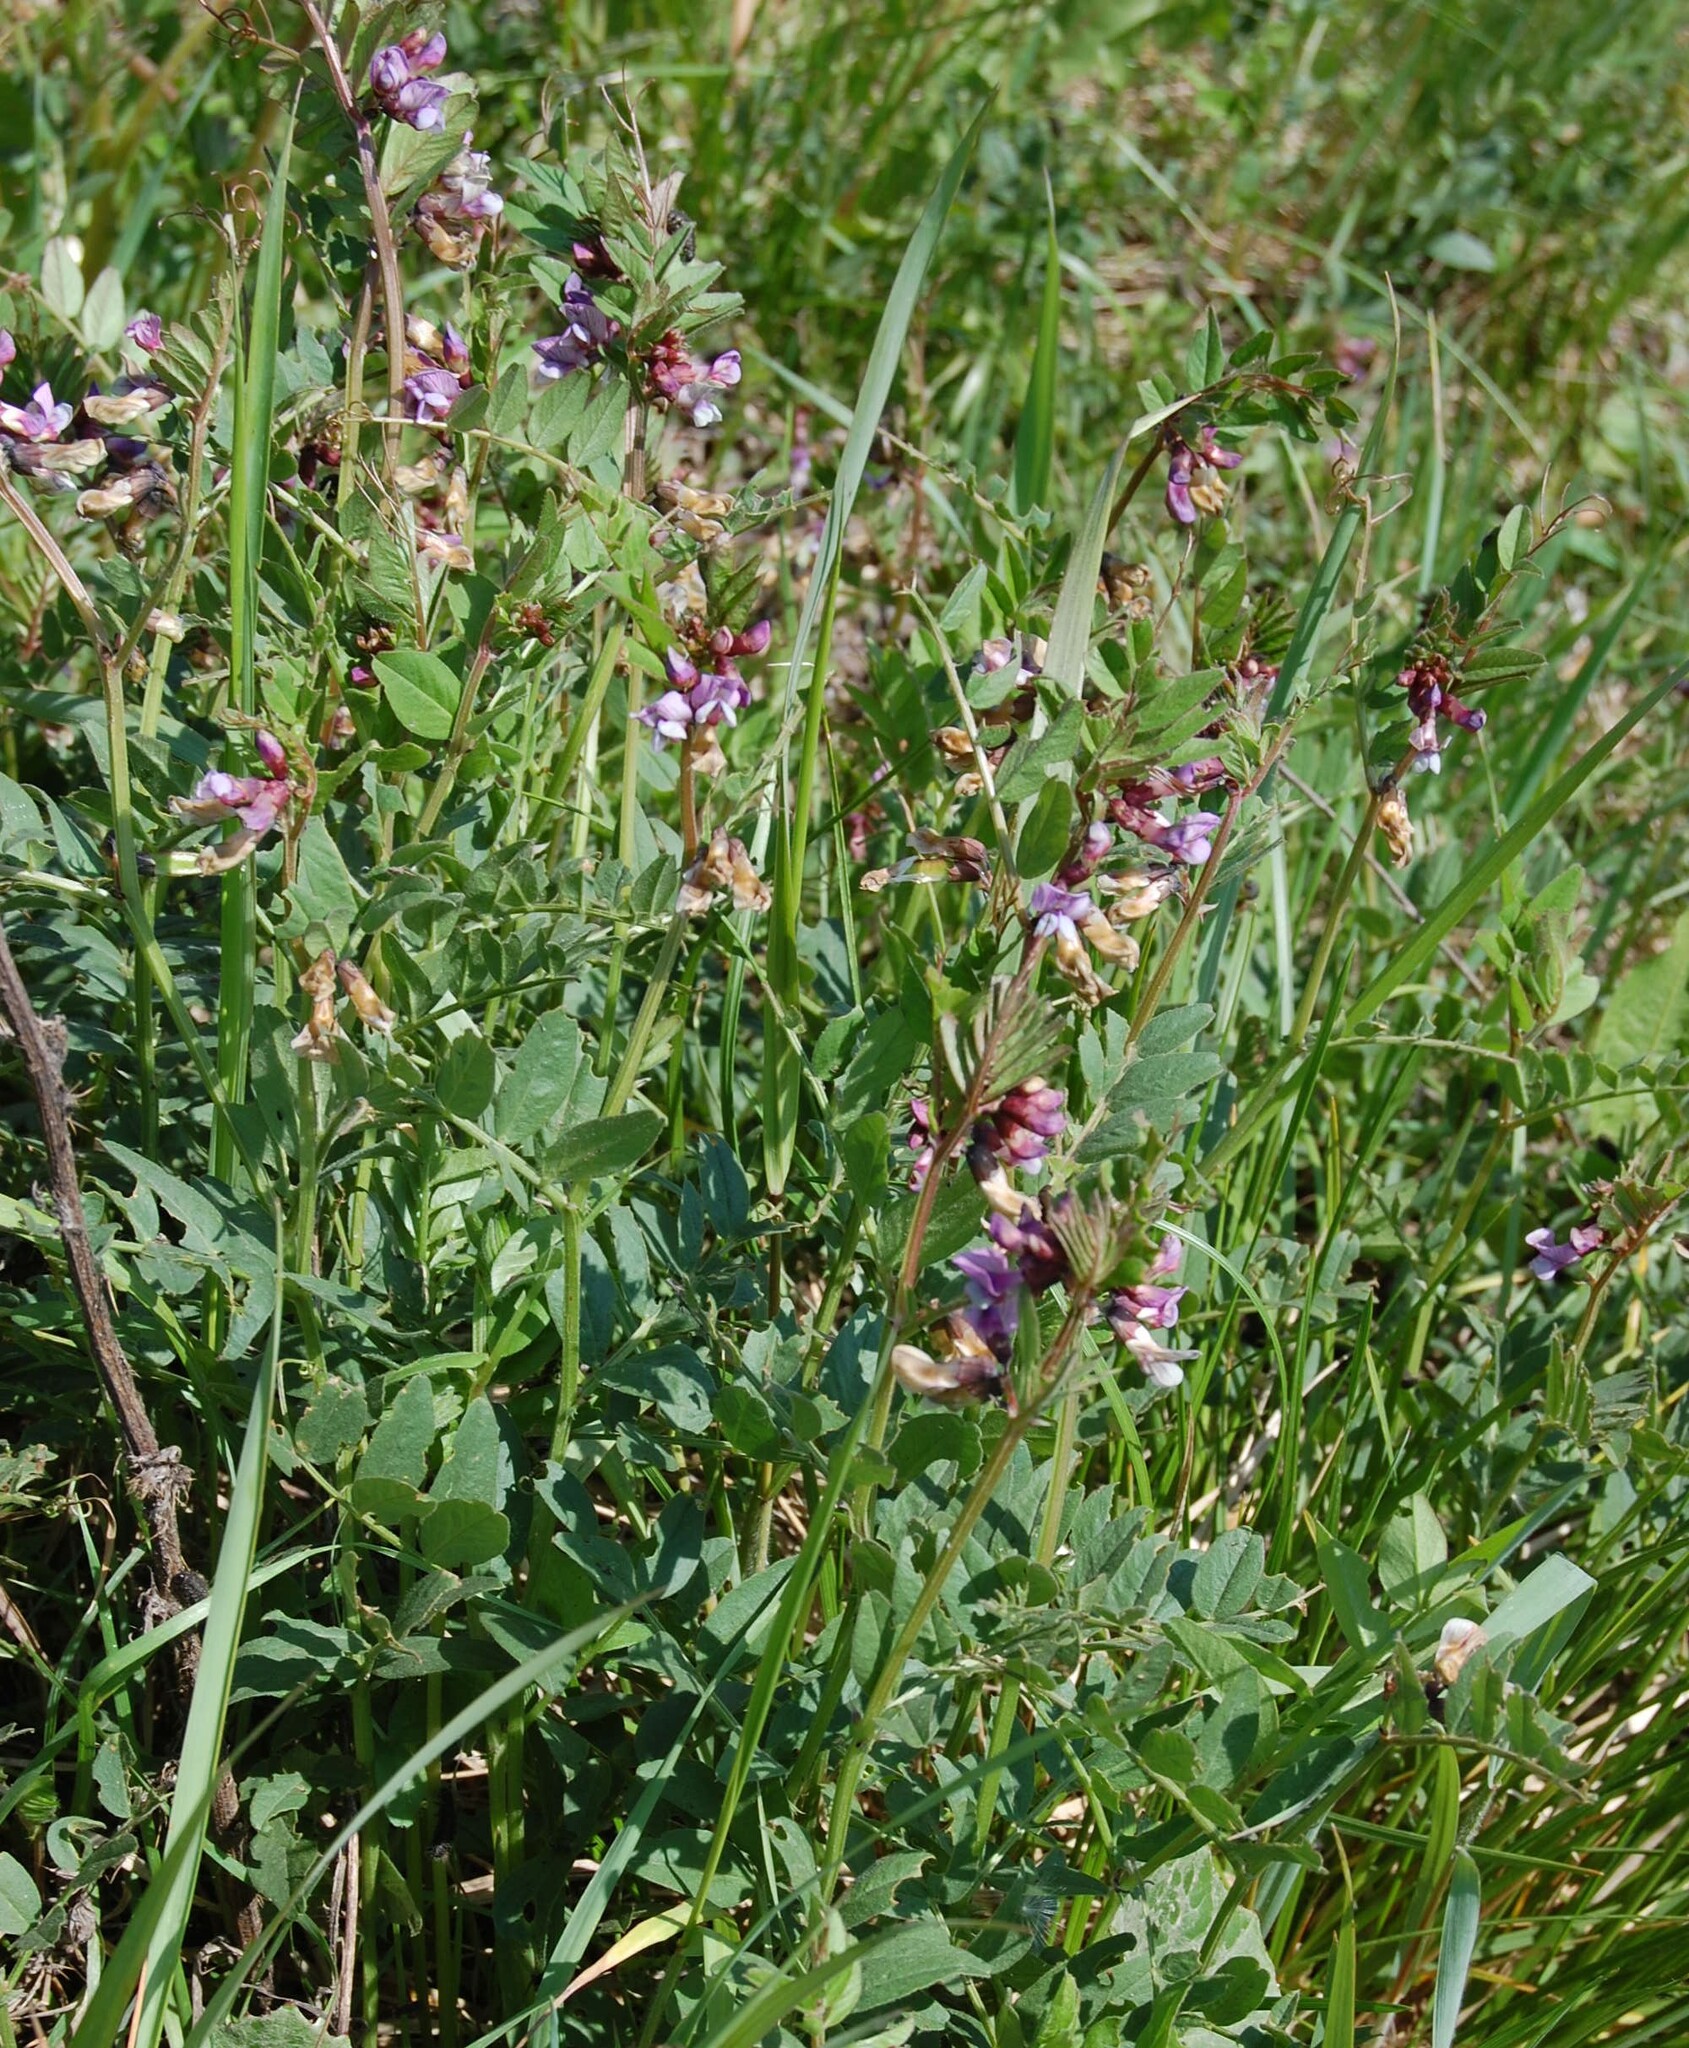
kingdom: Plantae
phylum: Tracheophyta
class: Magnoliopsida
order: Fabales
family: Fabaceae
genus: Vicia
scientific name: Vicia sepium
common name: Bush vetch
